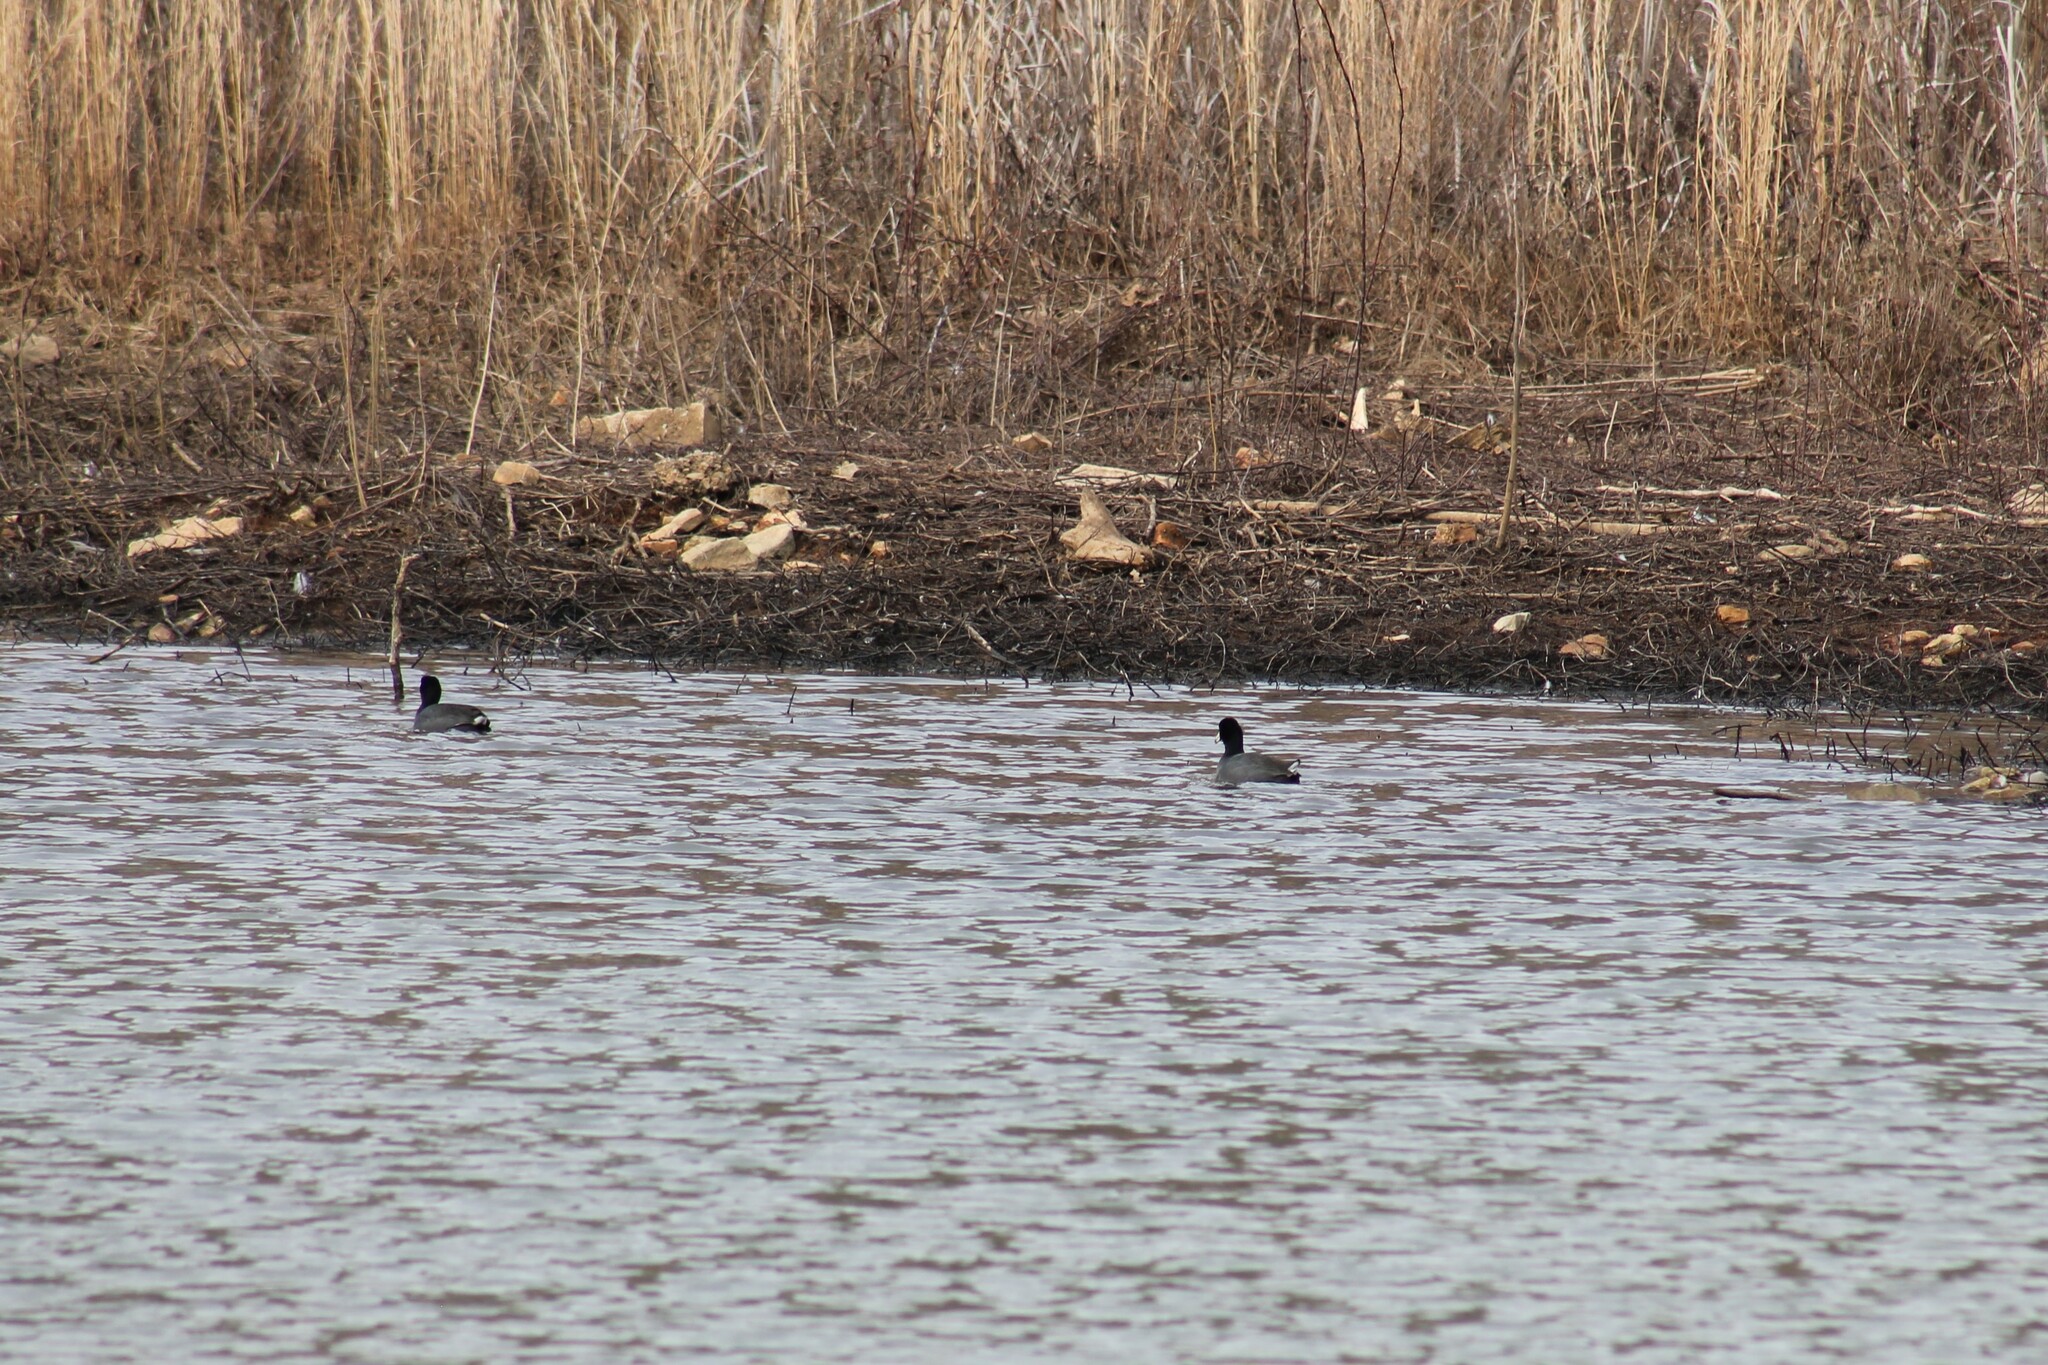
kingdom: Animalia
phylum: Chordata
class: Aves
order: Gruiformes
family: Rallidae
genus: Fulica
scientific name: Fulica americana
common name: American coot
